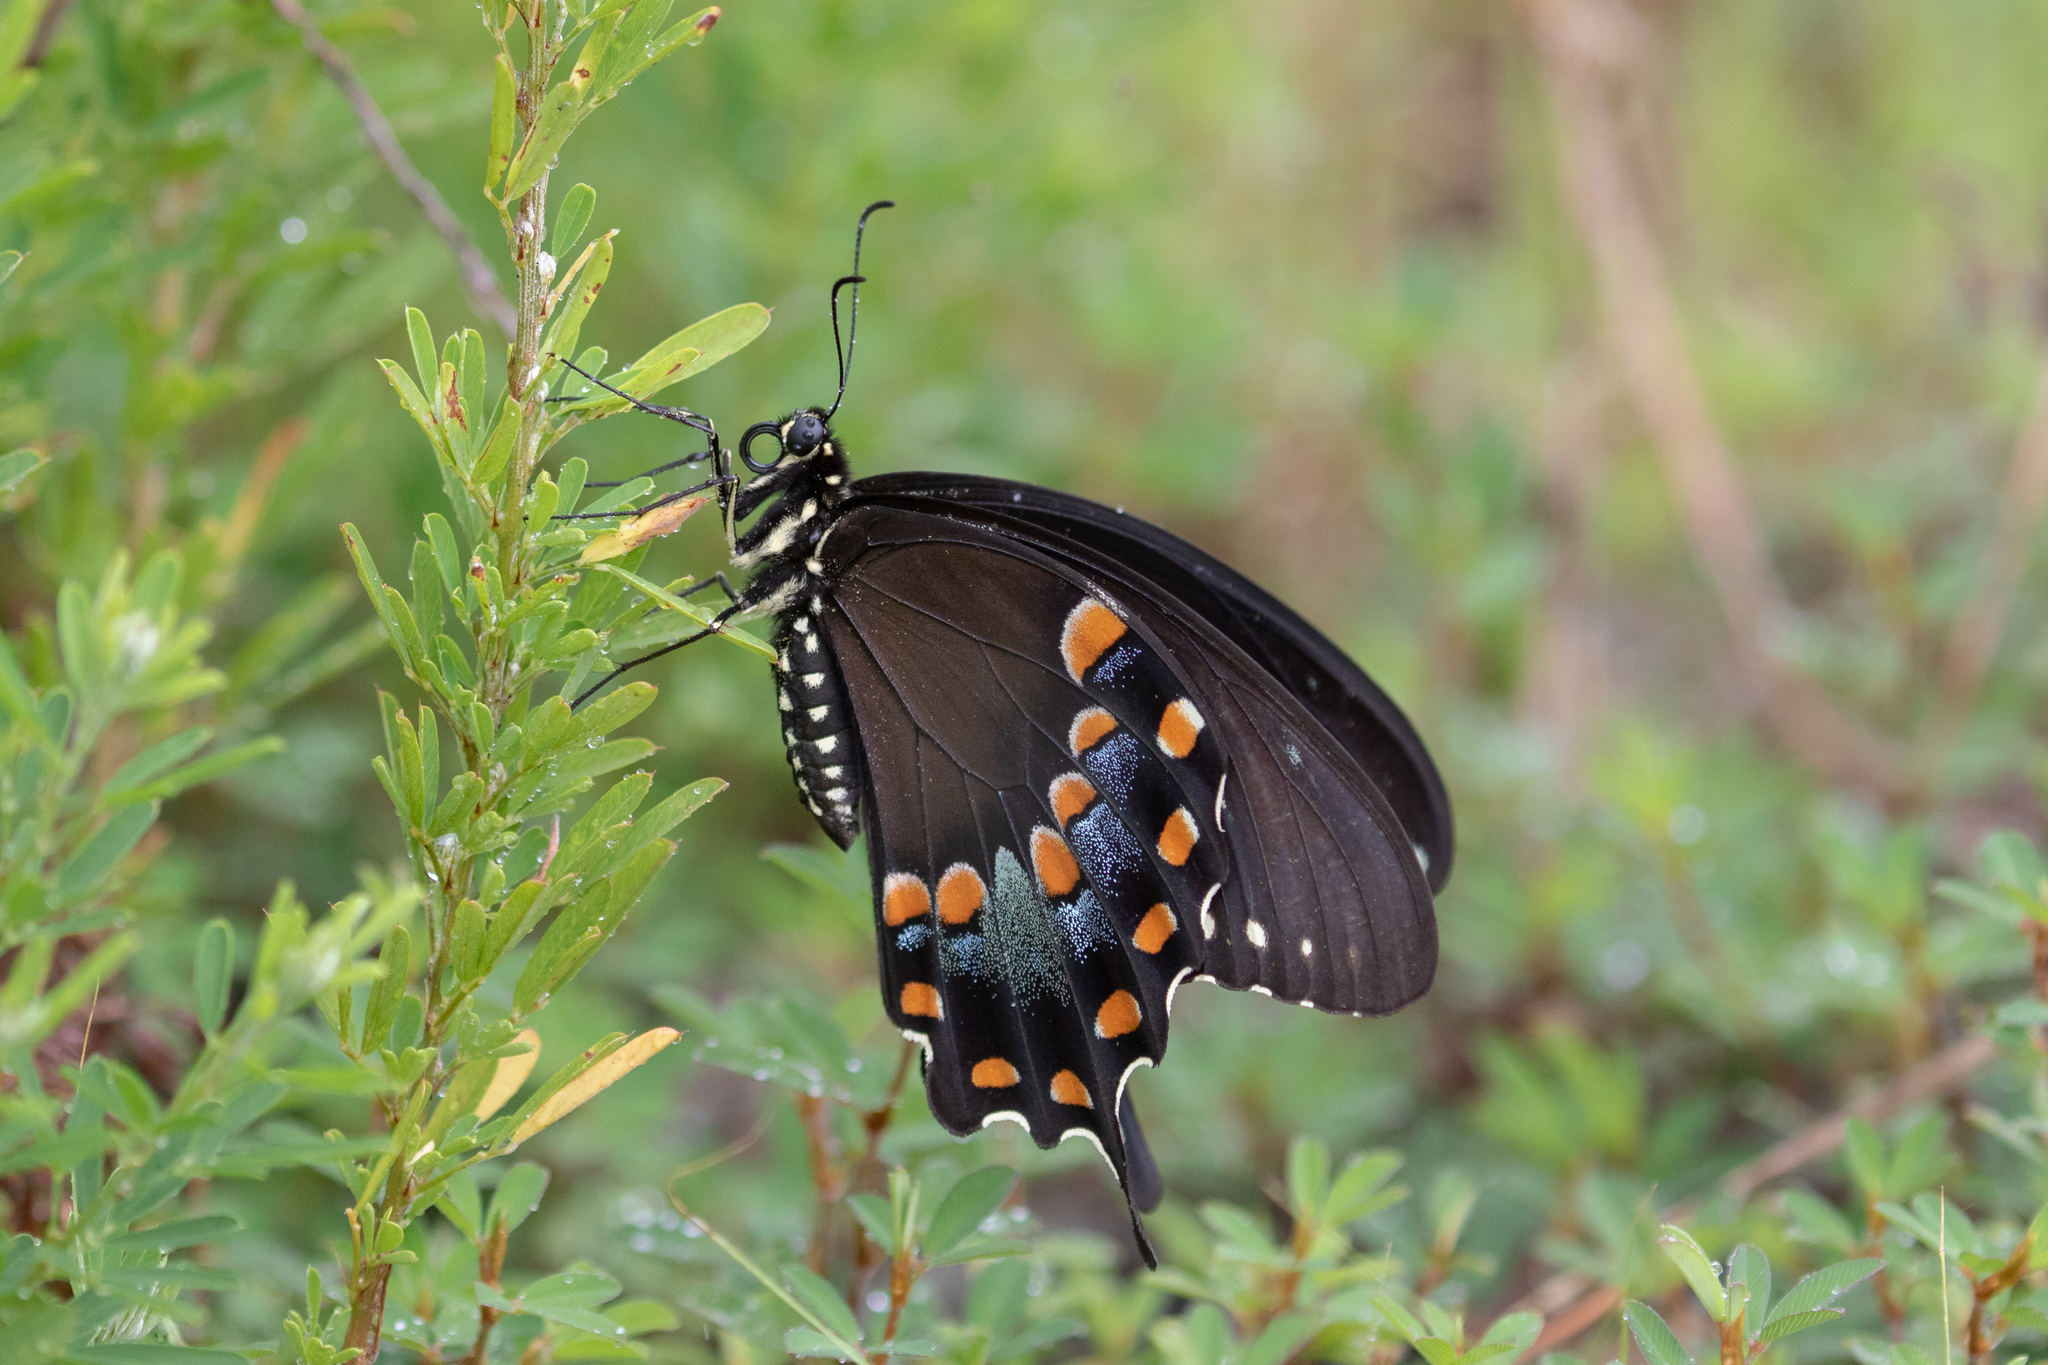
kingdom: Animalia
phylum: Arthropoda
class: Insecta
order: Lepidoptera
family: Papilionidae
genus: Papilio
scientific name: Papilio troilus
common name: Spicebush swallowtail
